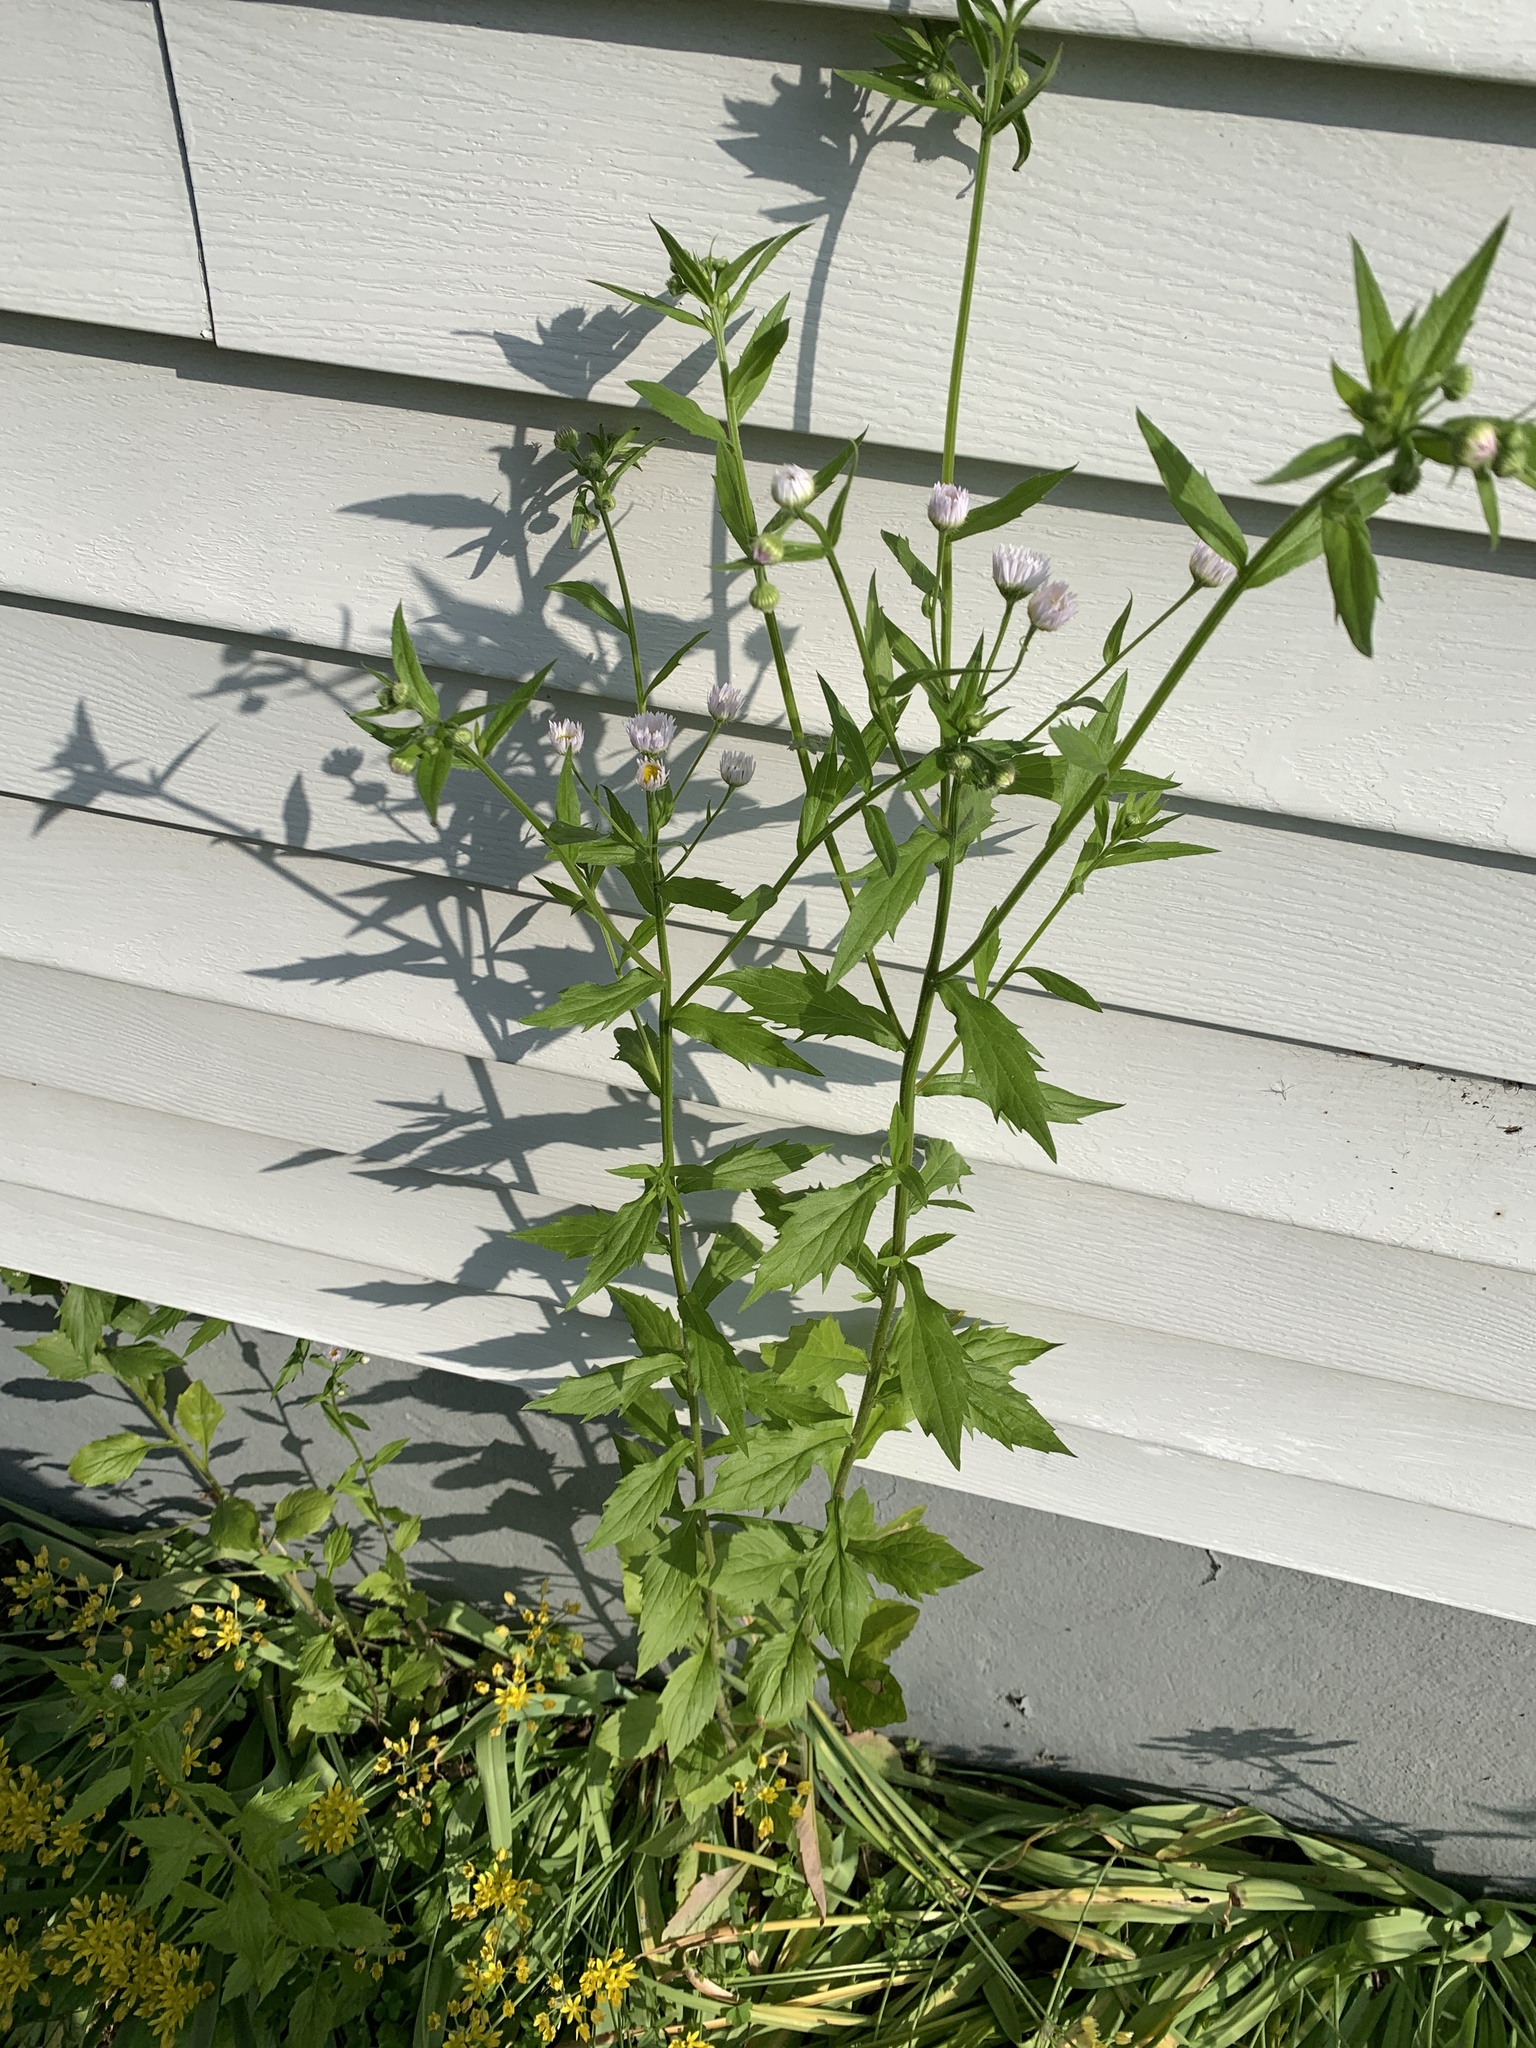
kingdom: Plantae
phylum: Tracheophyta
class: Magnoliopsida
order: Asterales
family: Asteraceae
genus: Erigeron
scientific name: Erigeron annuus
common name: Tall fleabane
